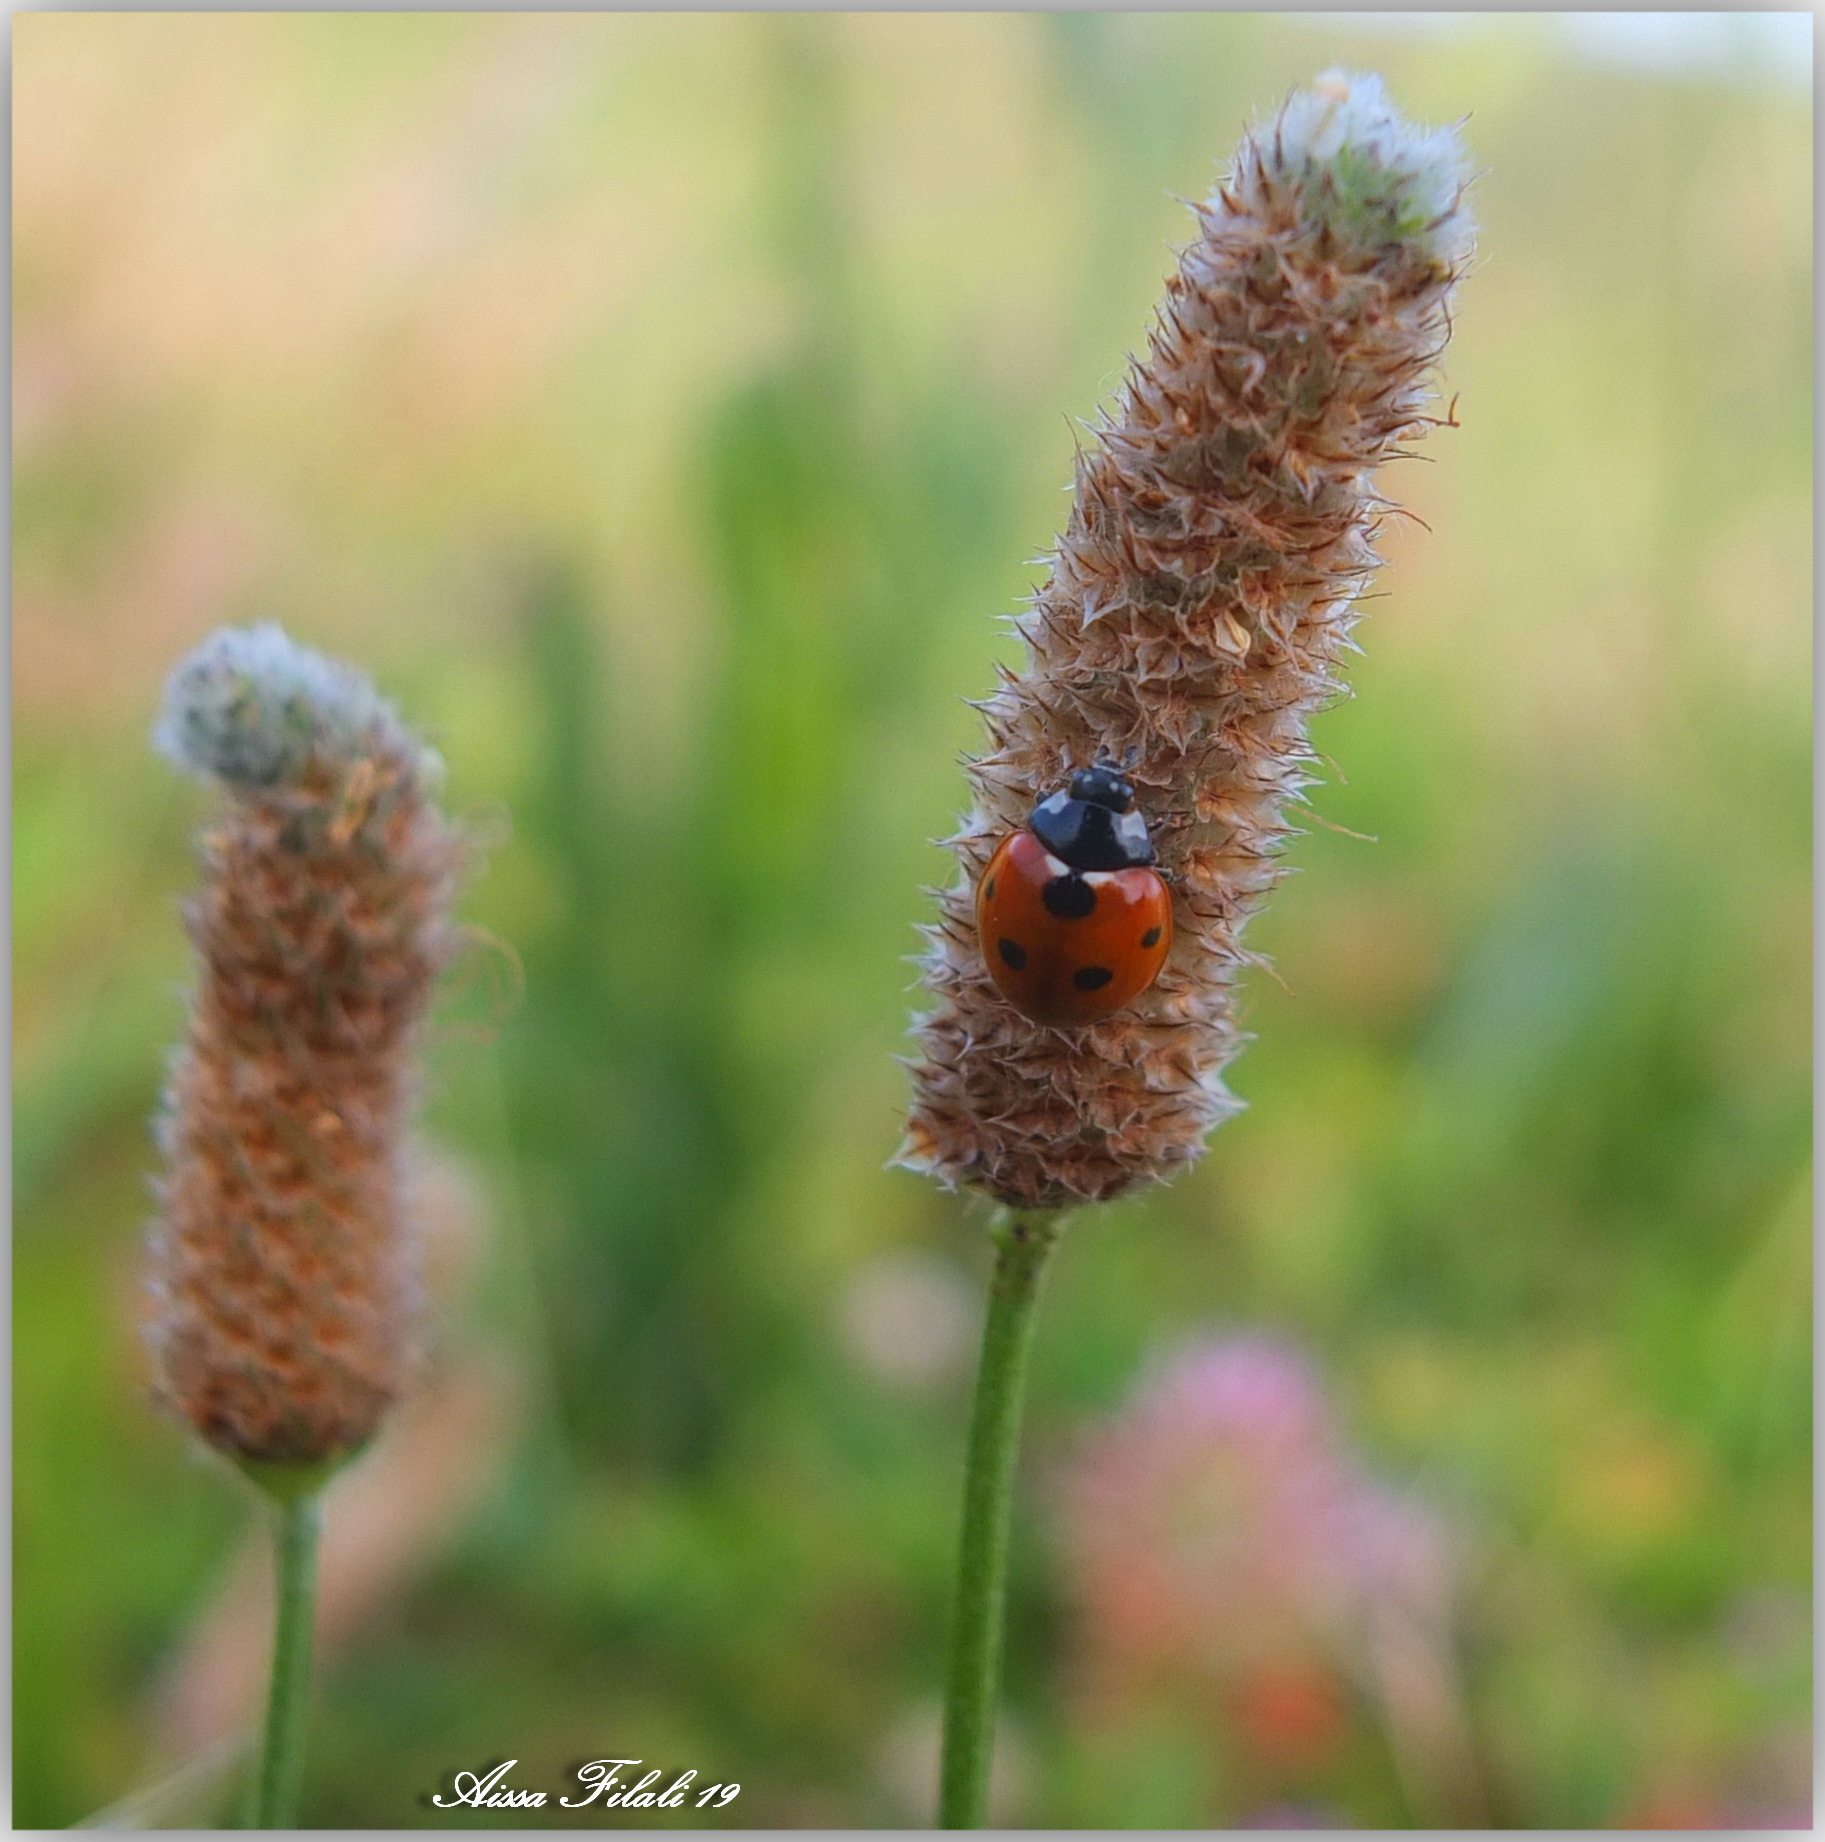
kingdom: Animalia
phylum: Arthropoda
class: Insecta
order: Coleoptera
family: Coccinellidae
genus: Coccinella
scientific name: Coccinella algerica
